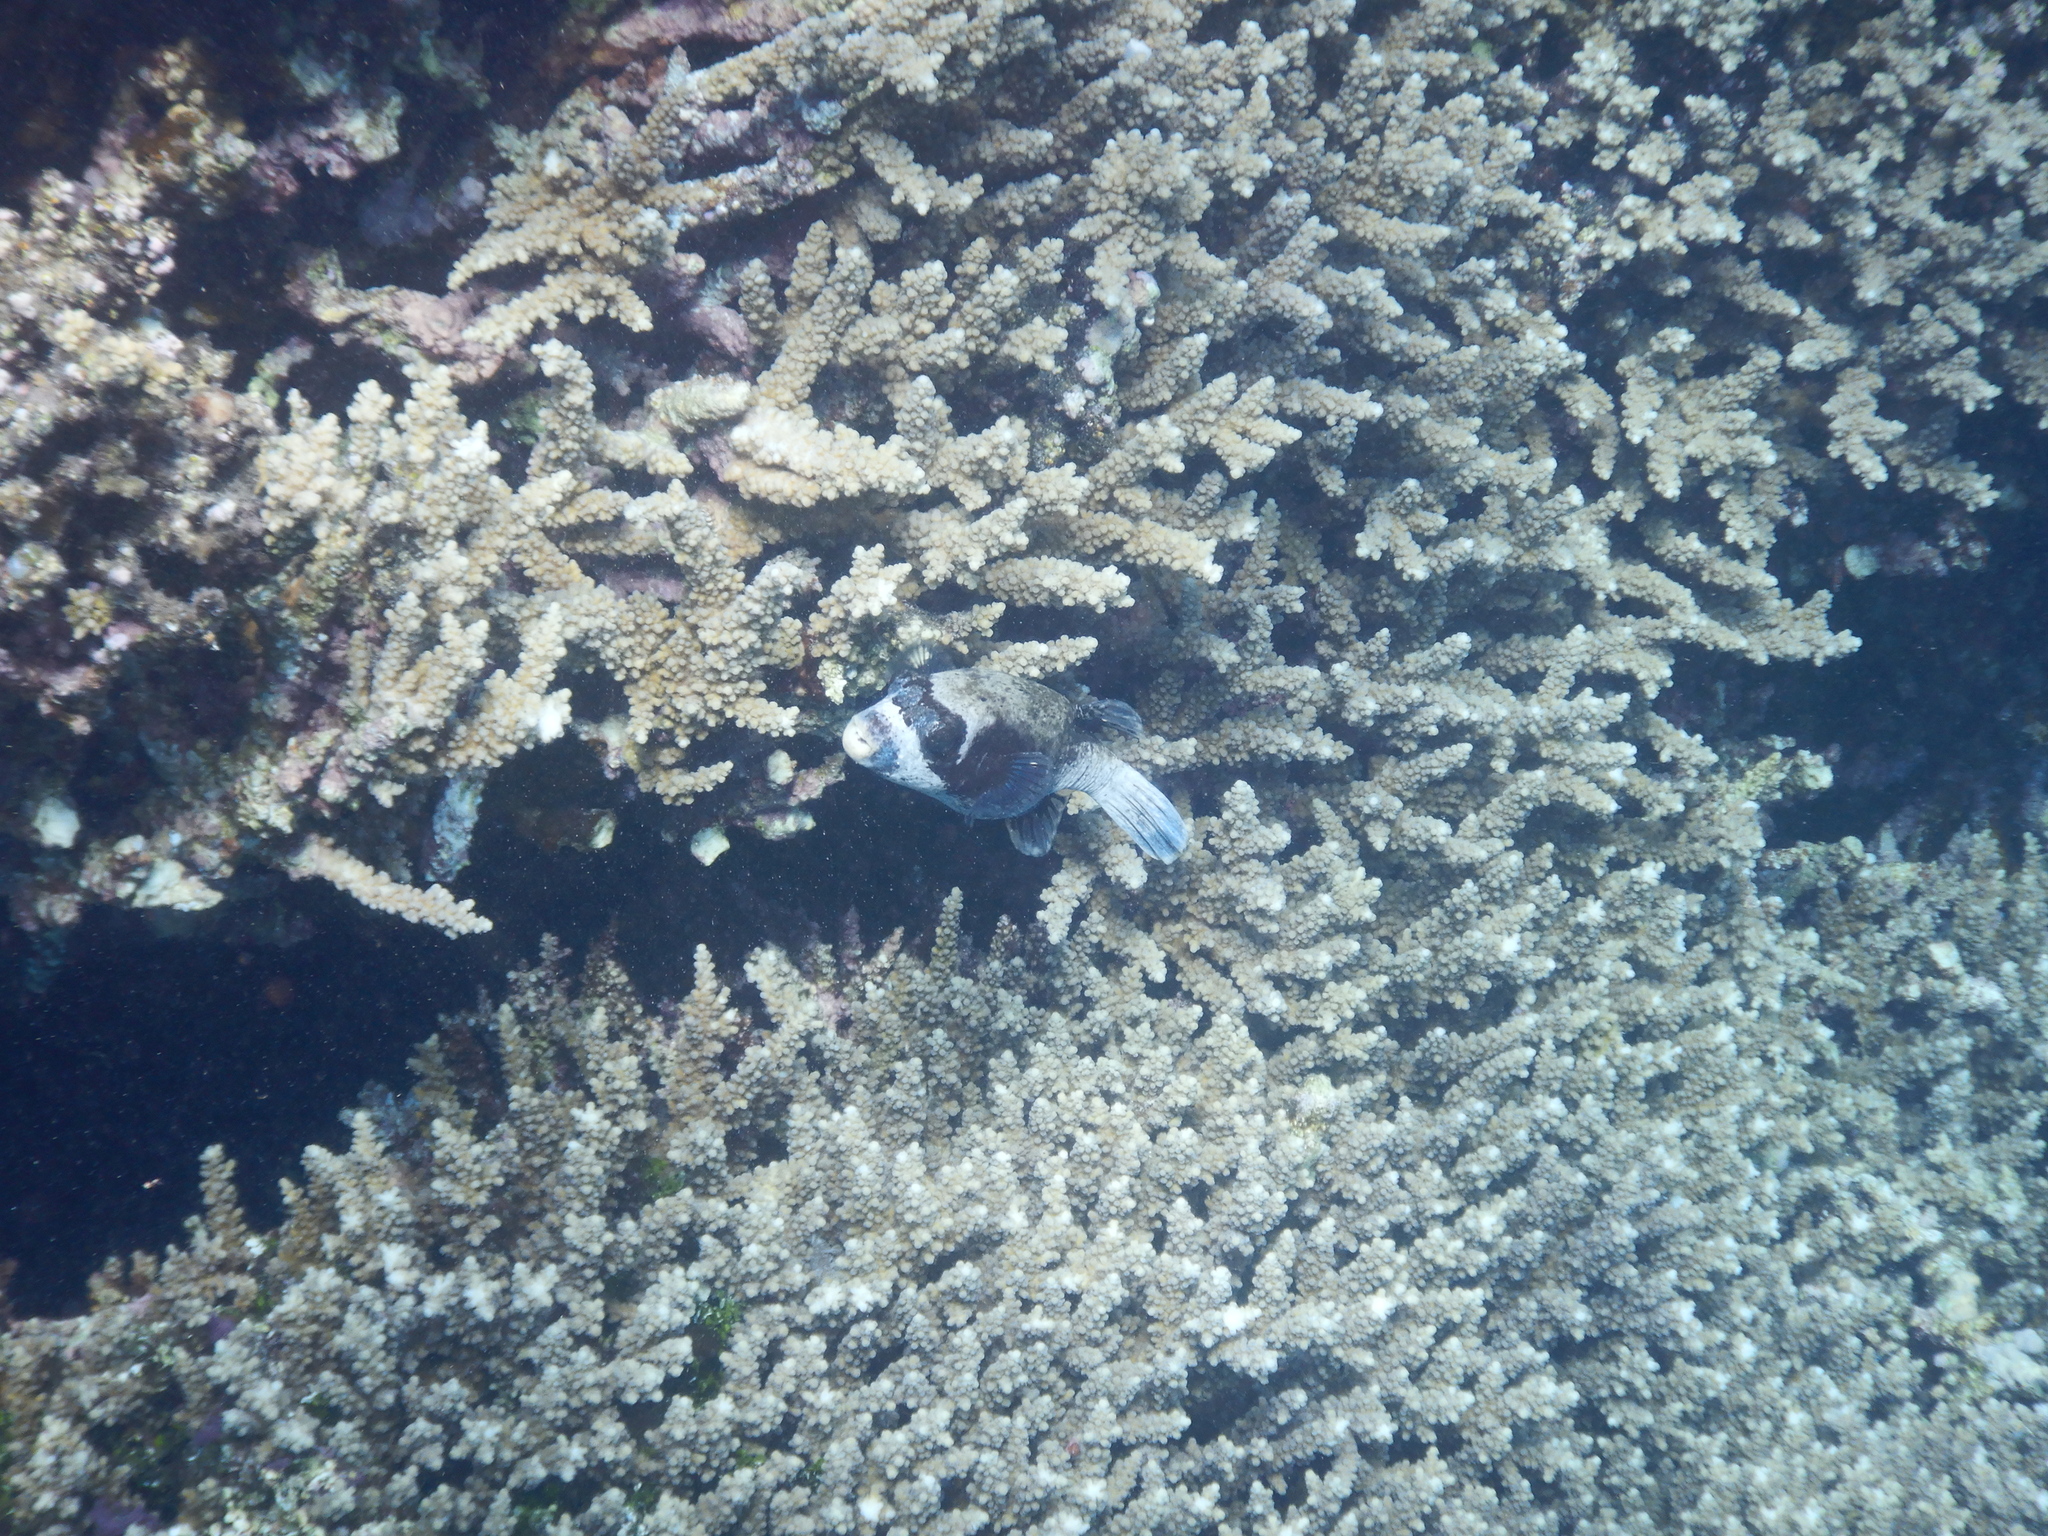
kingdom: Animalia
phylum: Chordata
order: Tetraodontiformes
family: Tetraodontidae
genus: Arothron
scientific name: Arothron diadematus
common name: Masked puffer
